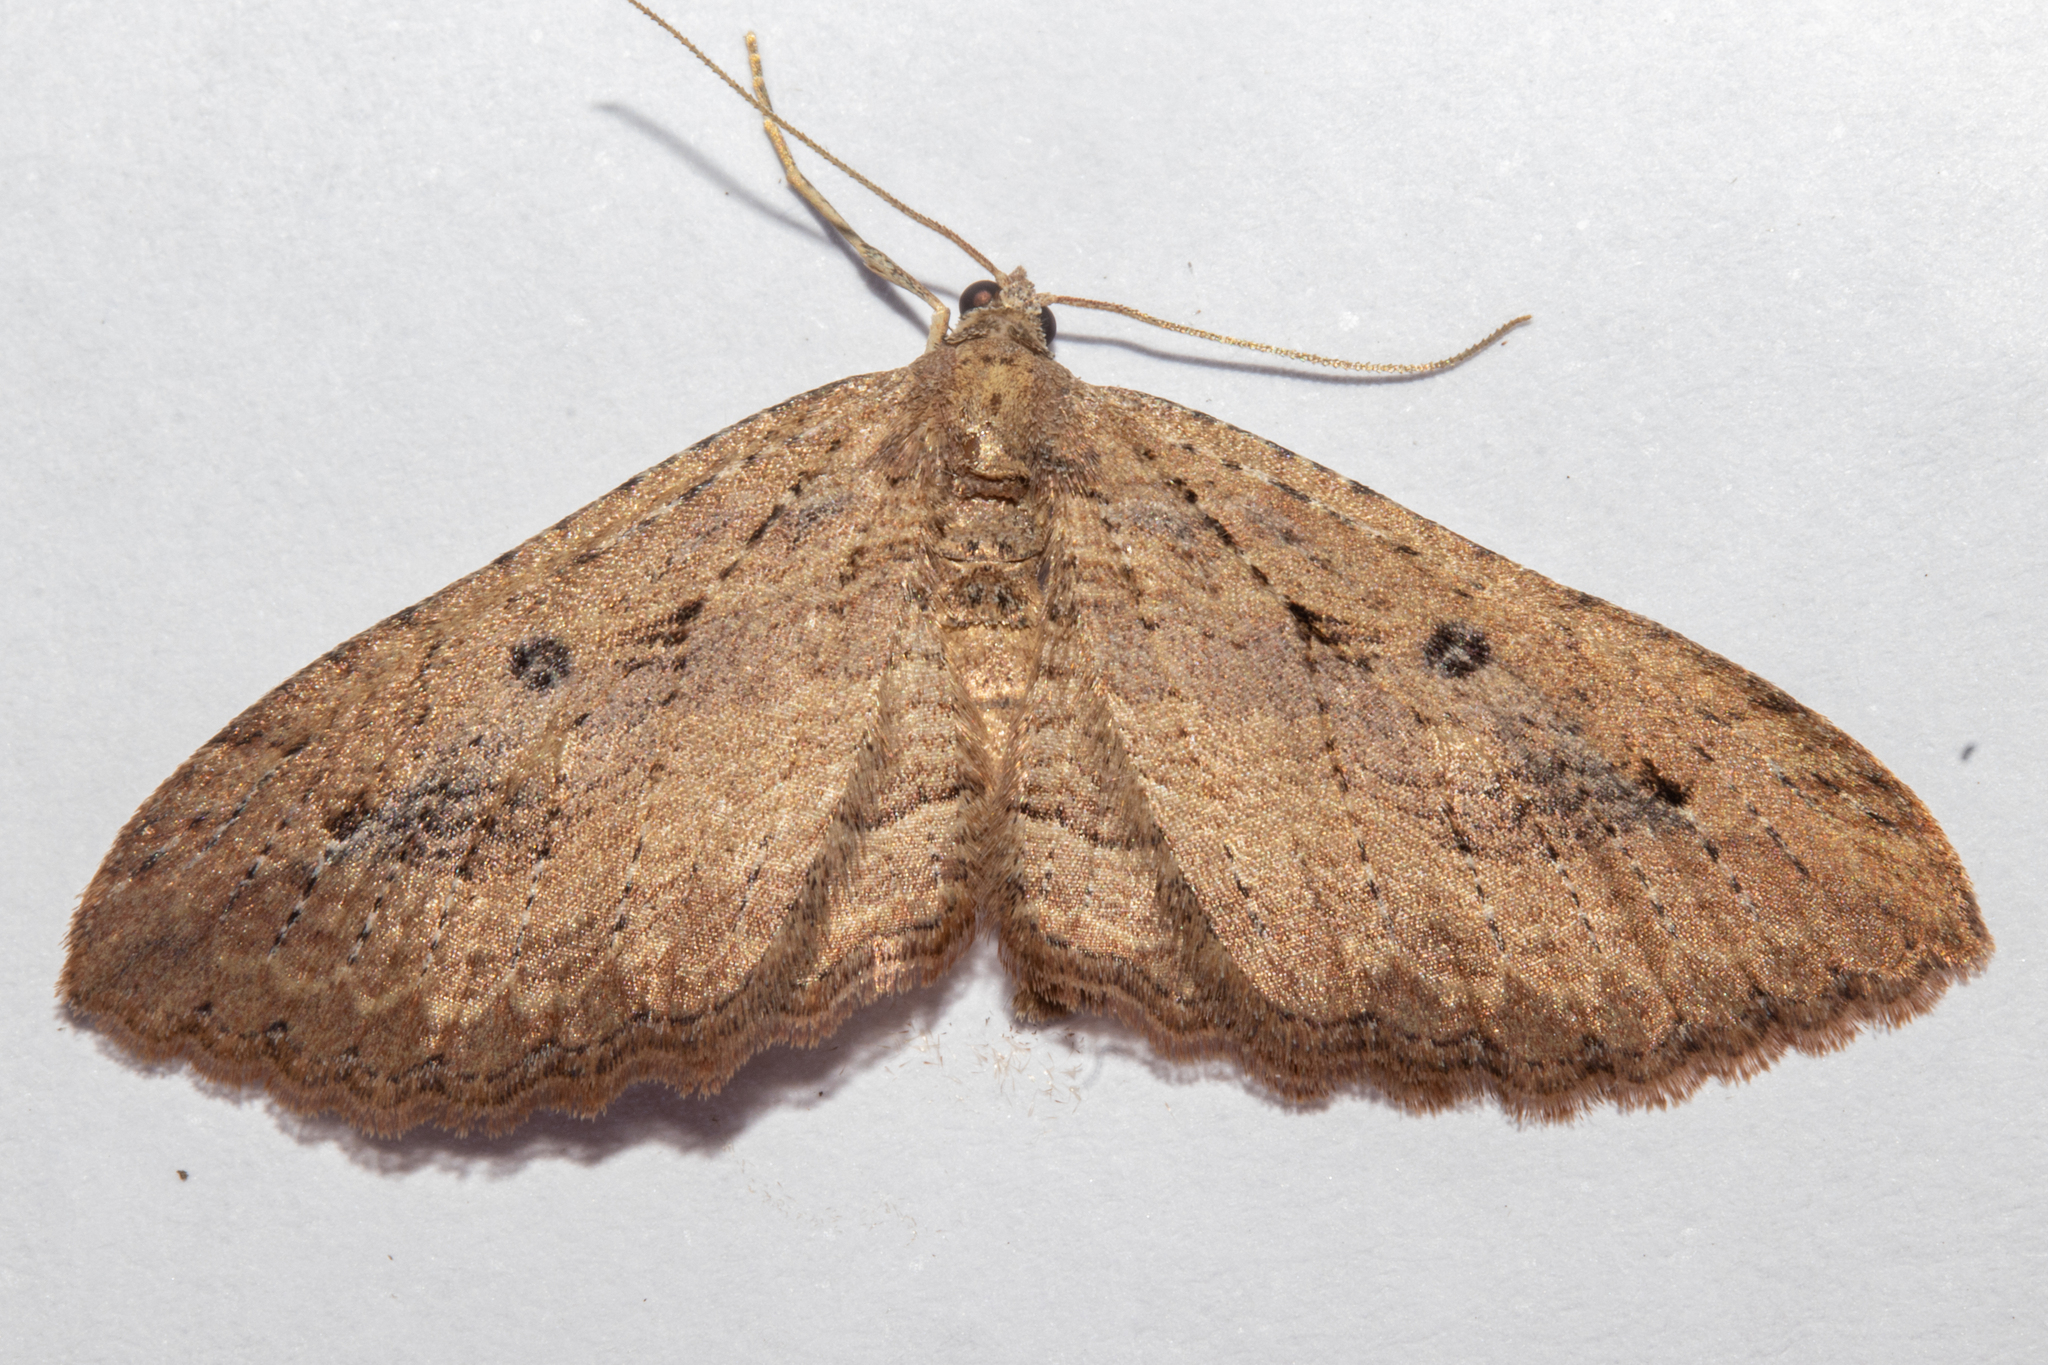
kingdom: Animalia
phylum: Arthropoda
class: Insecta
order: Lepidoptera
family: Geometridae
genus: Austrocidaria
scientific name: Austrocidaria gobiata
